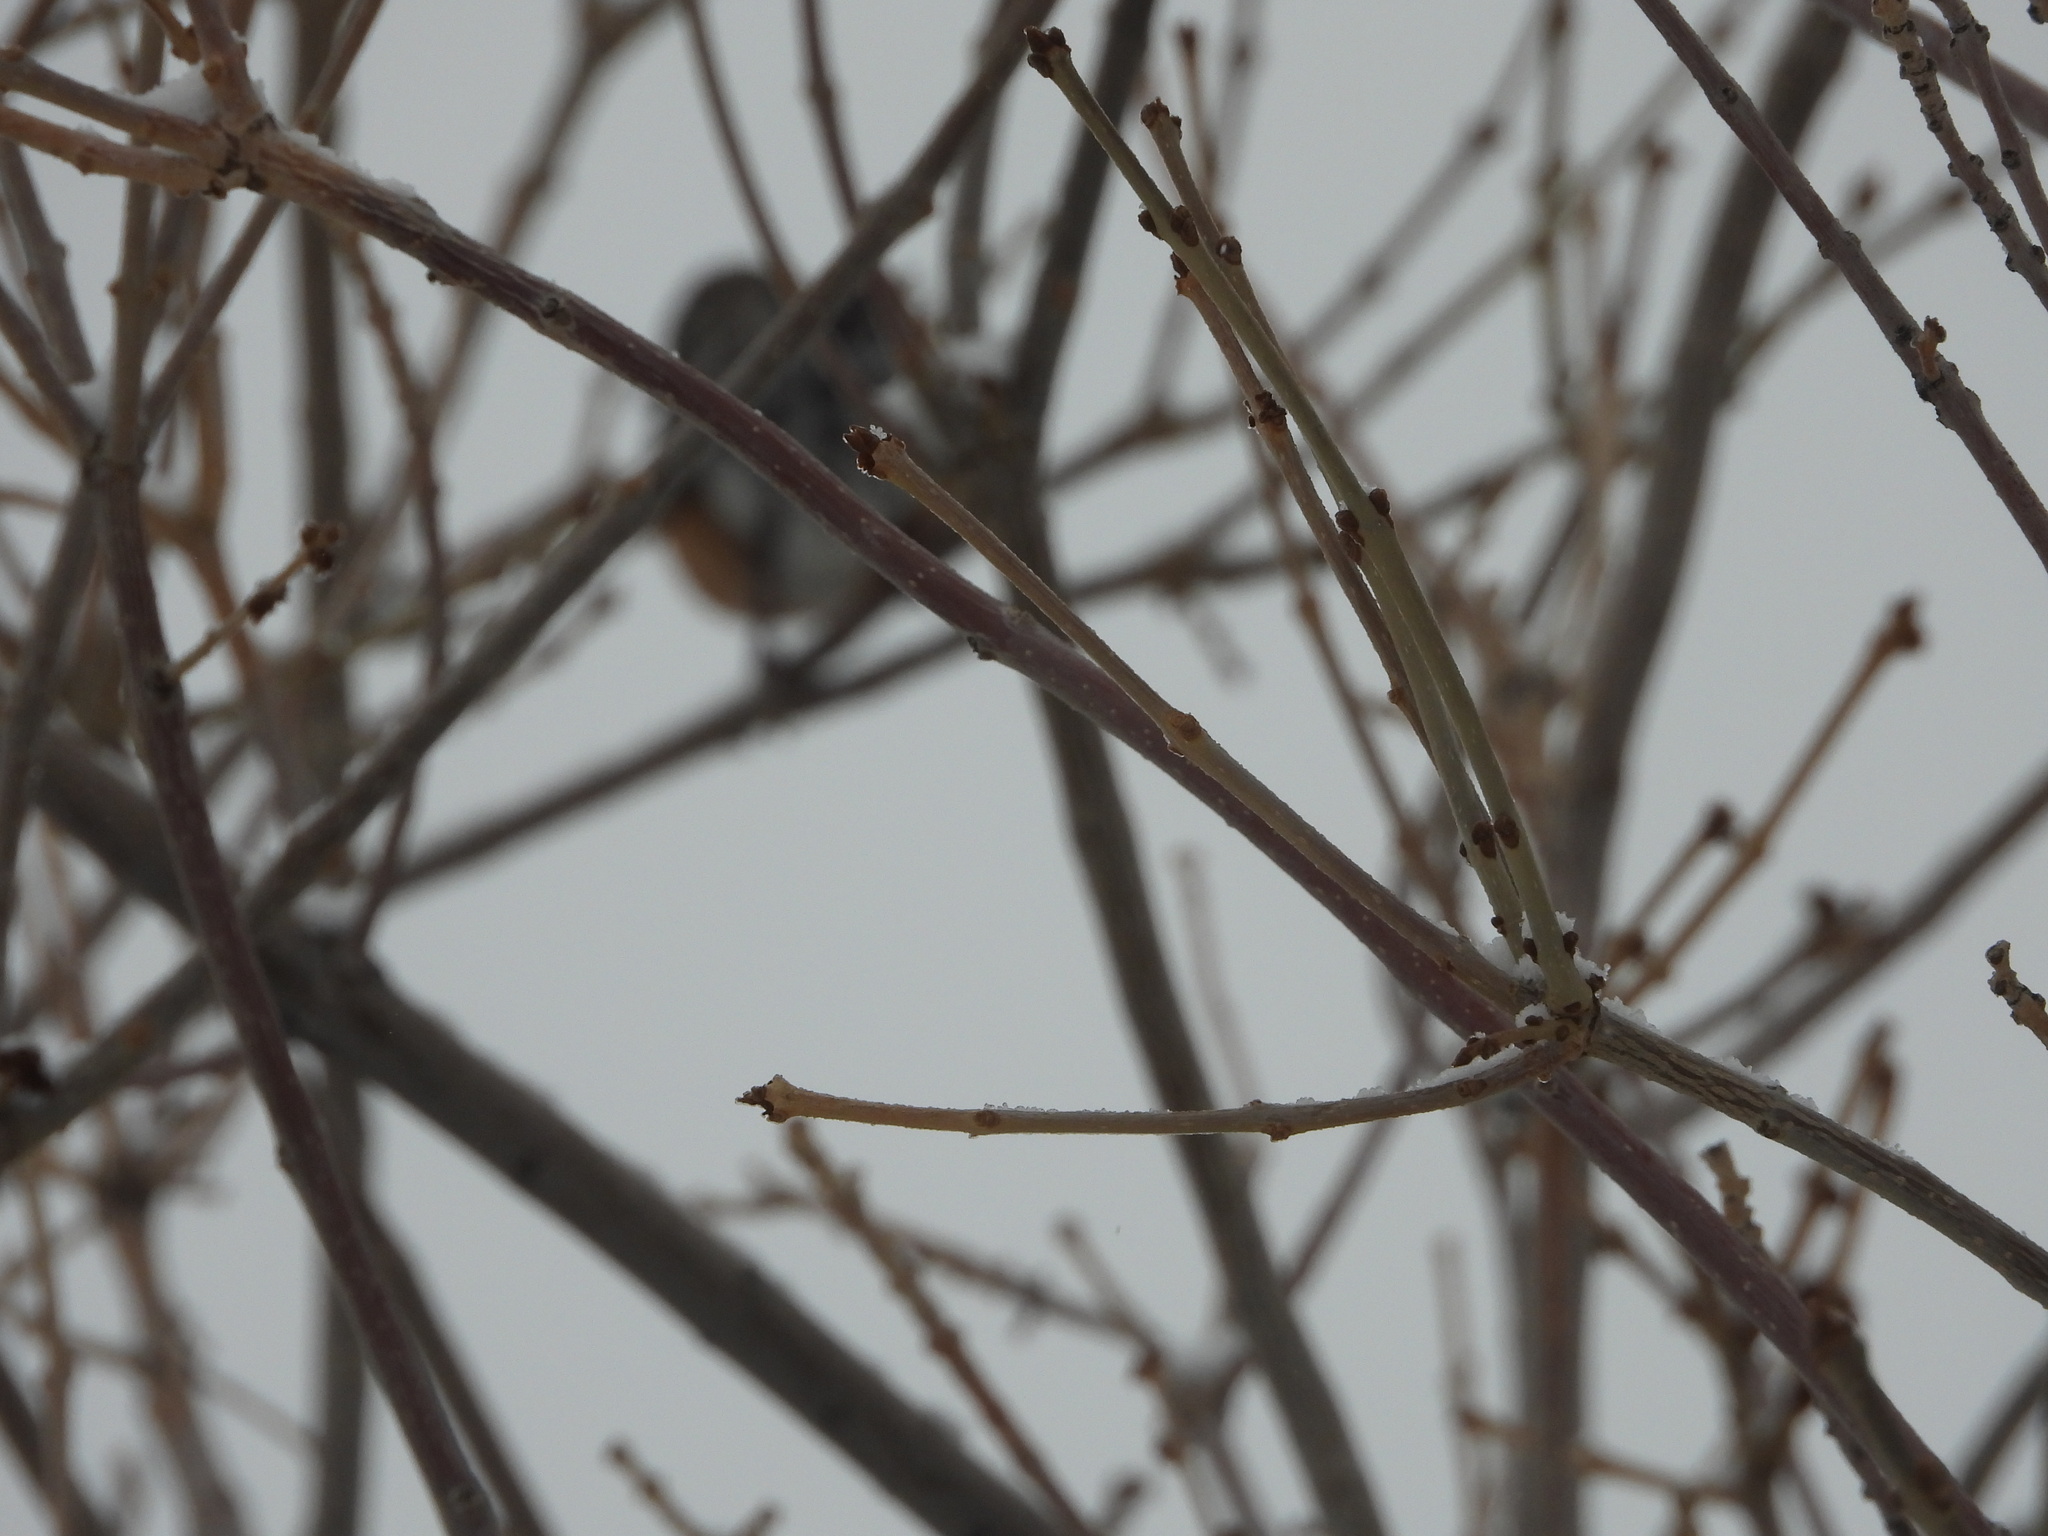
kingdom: Animalia
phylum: Chordata
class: Aves
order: Passeriformes
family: Turdidae
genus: Turdus
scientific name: Turdus migratorius
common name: American robin
